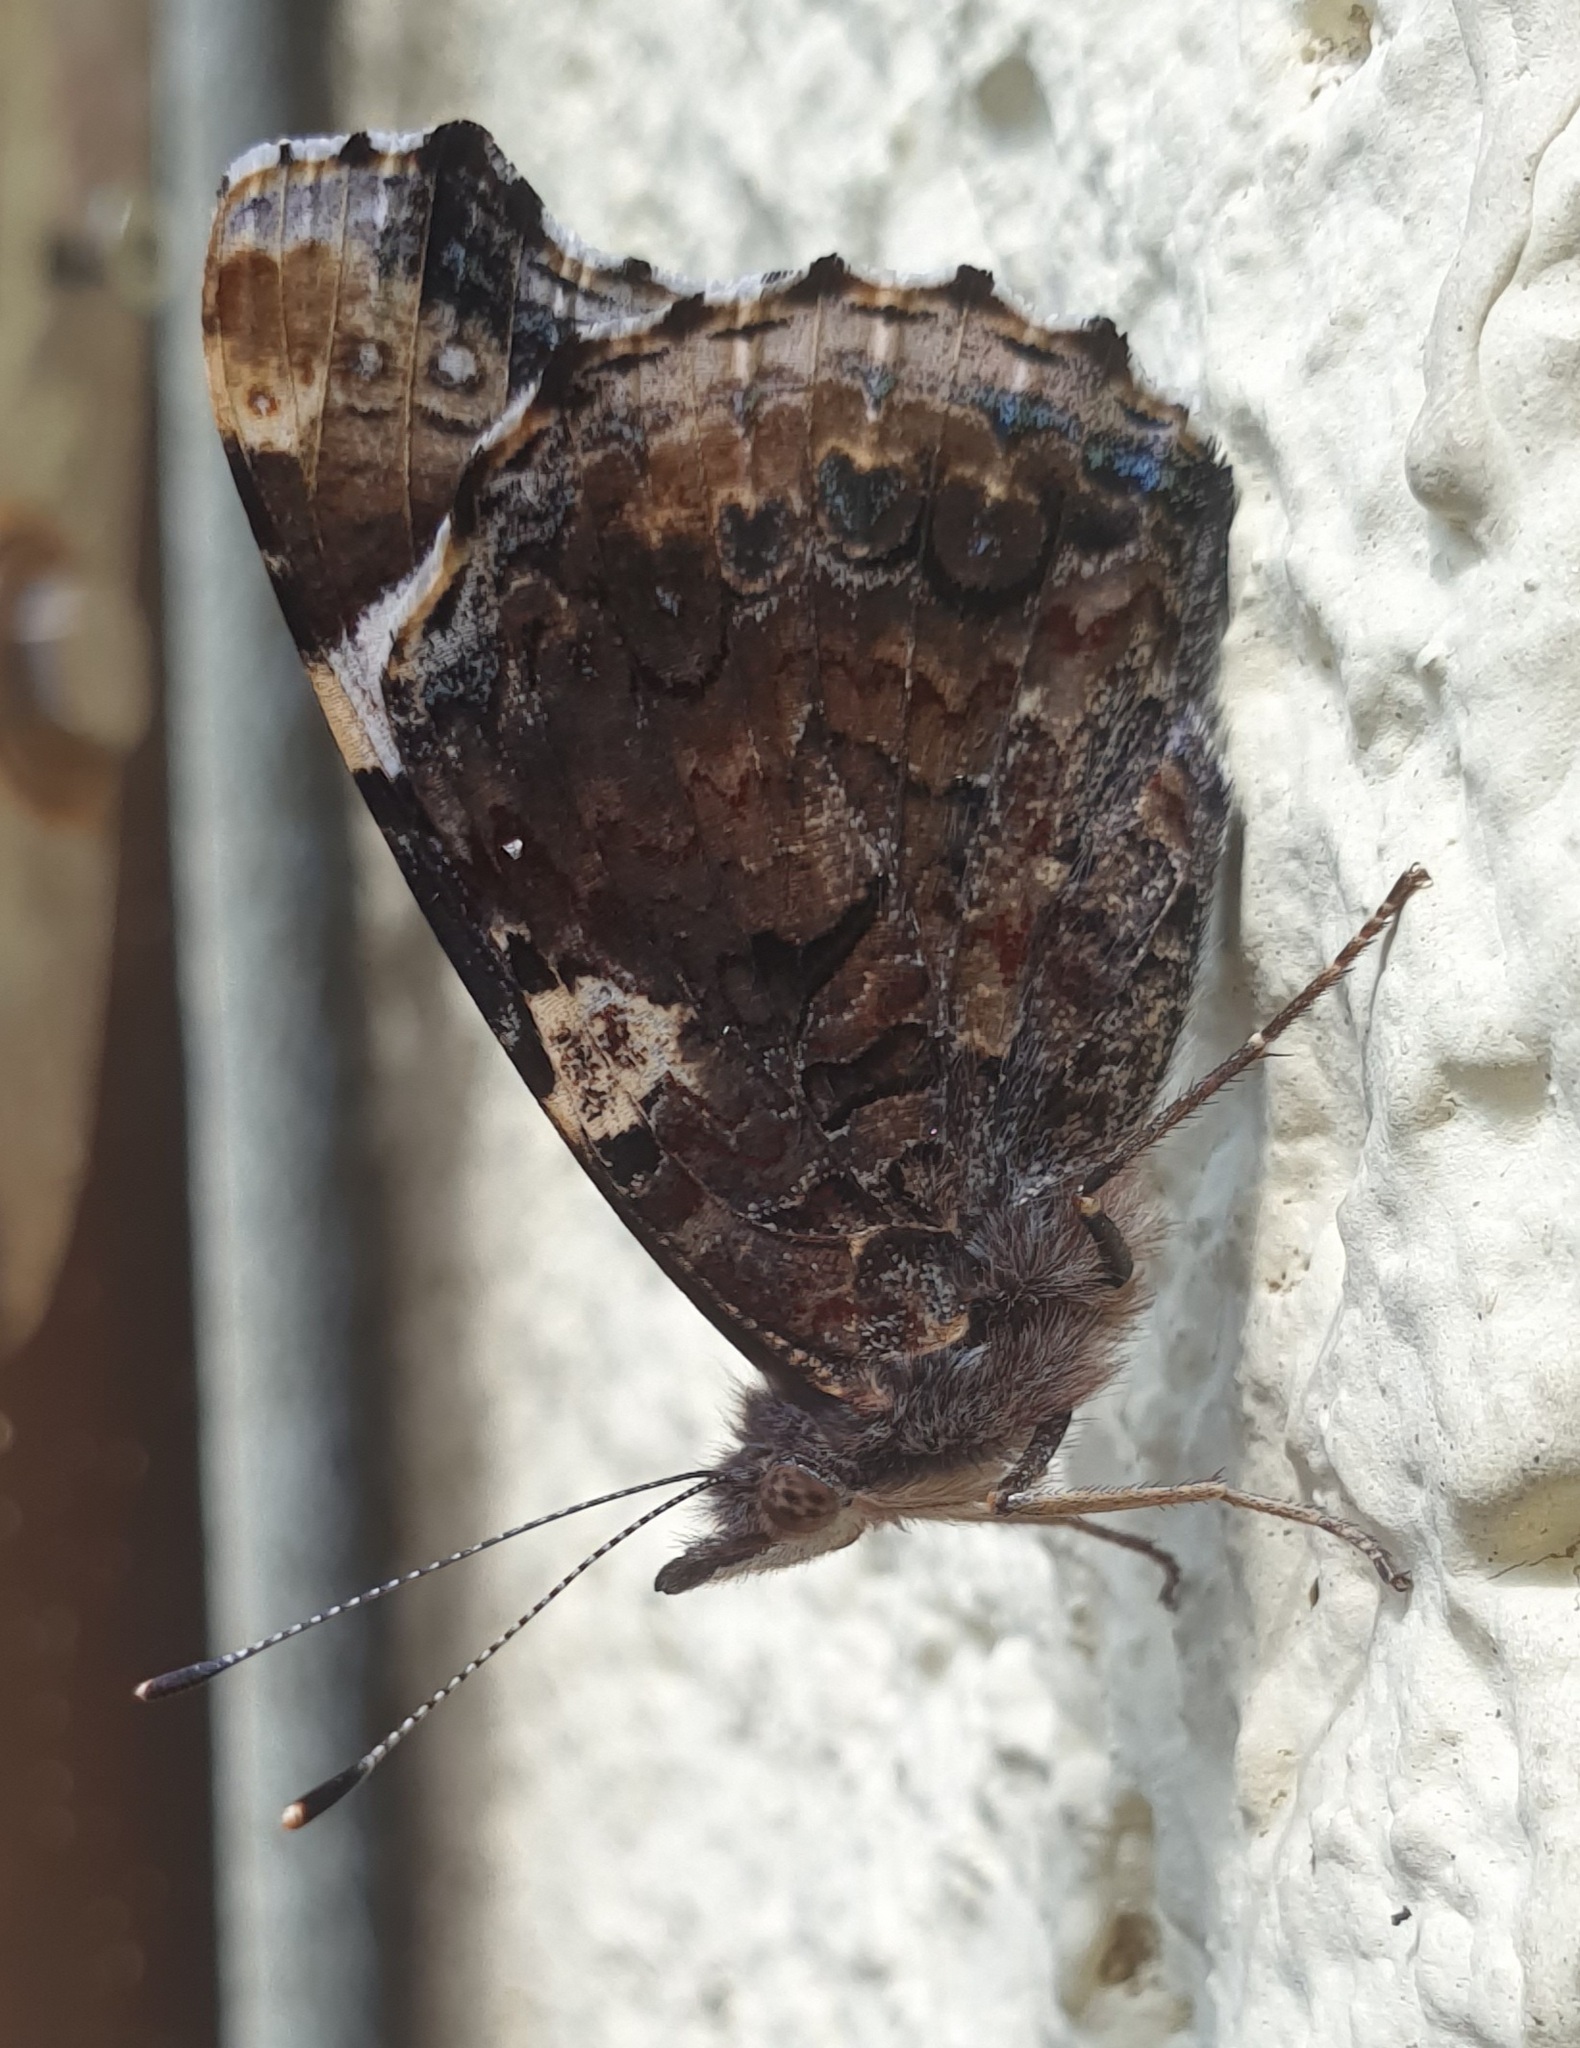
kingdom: Animalia
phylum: Arthropoda
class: Insecta
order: Lepidoptera
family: Nymphalidae
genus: Vanessa
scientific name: Vanessa atalanta
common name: Red admiral
